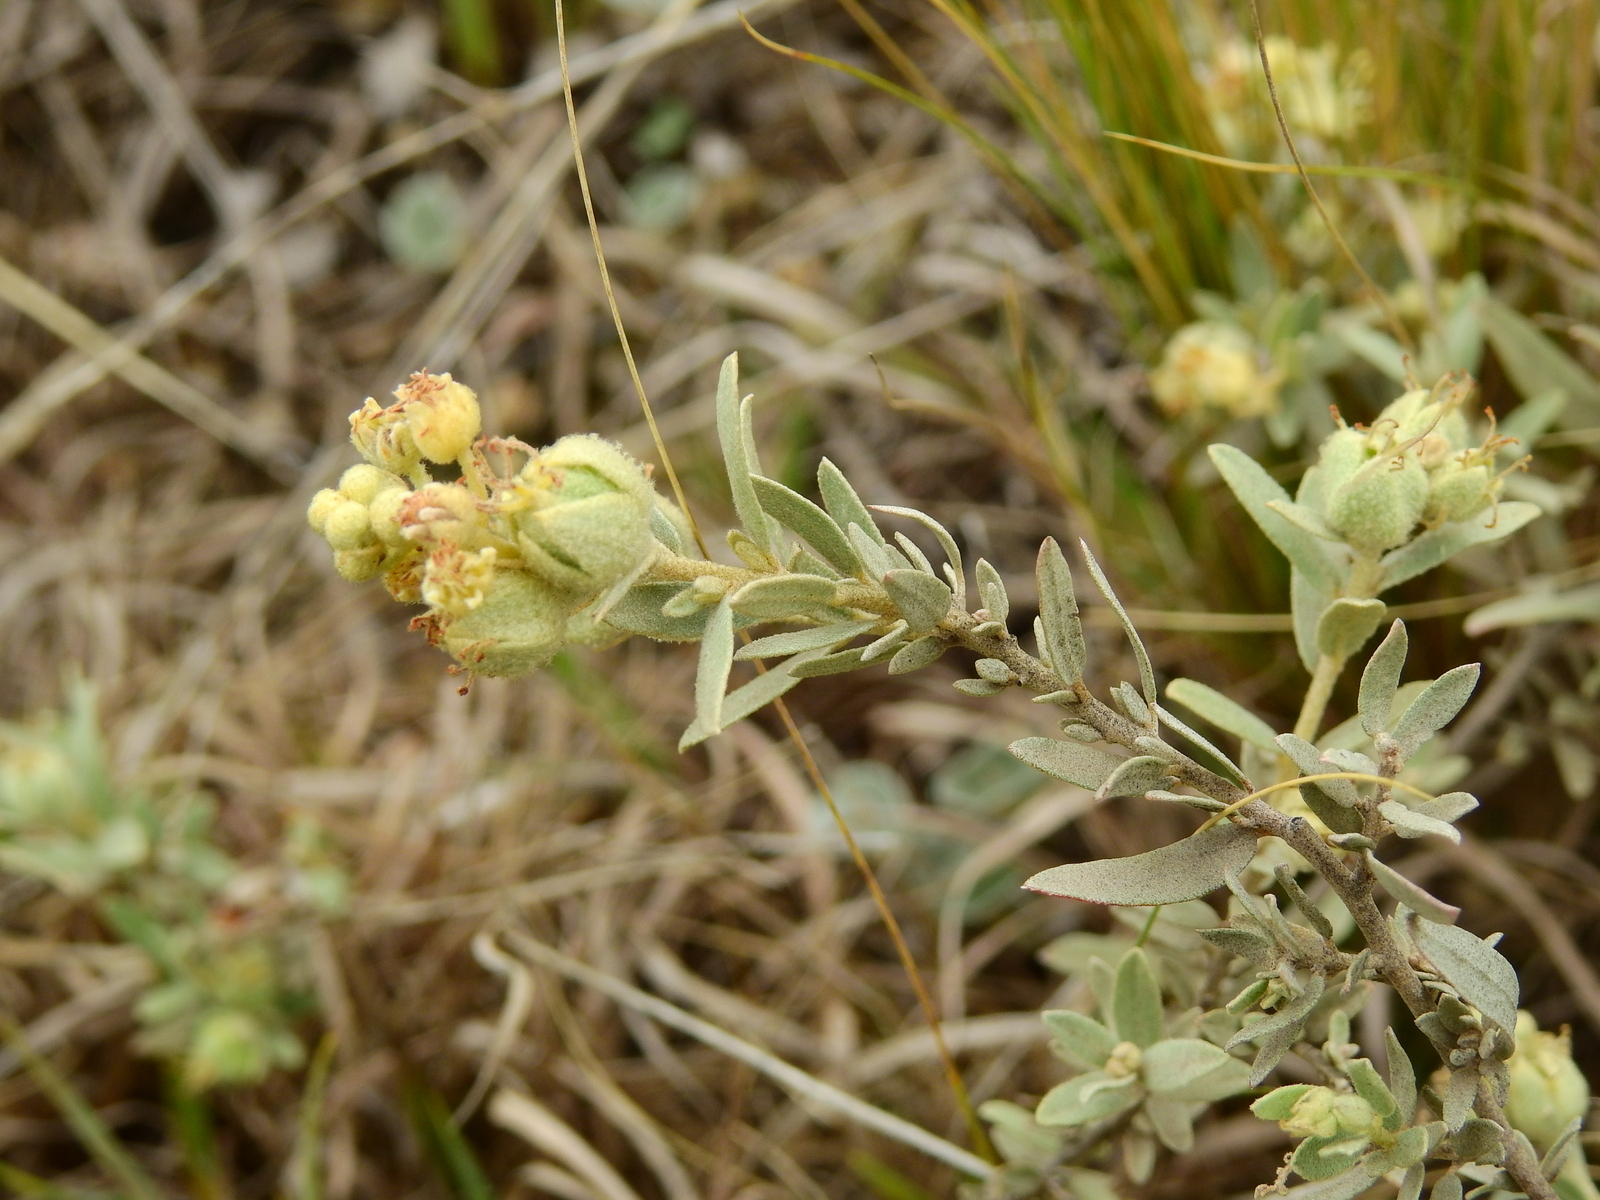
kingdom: Plantae
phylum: Tracheophyta
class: Magnoliopsida
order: Malpighiales
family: Euphorbiaceae
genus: Croton
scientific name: Croton parvifolius
